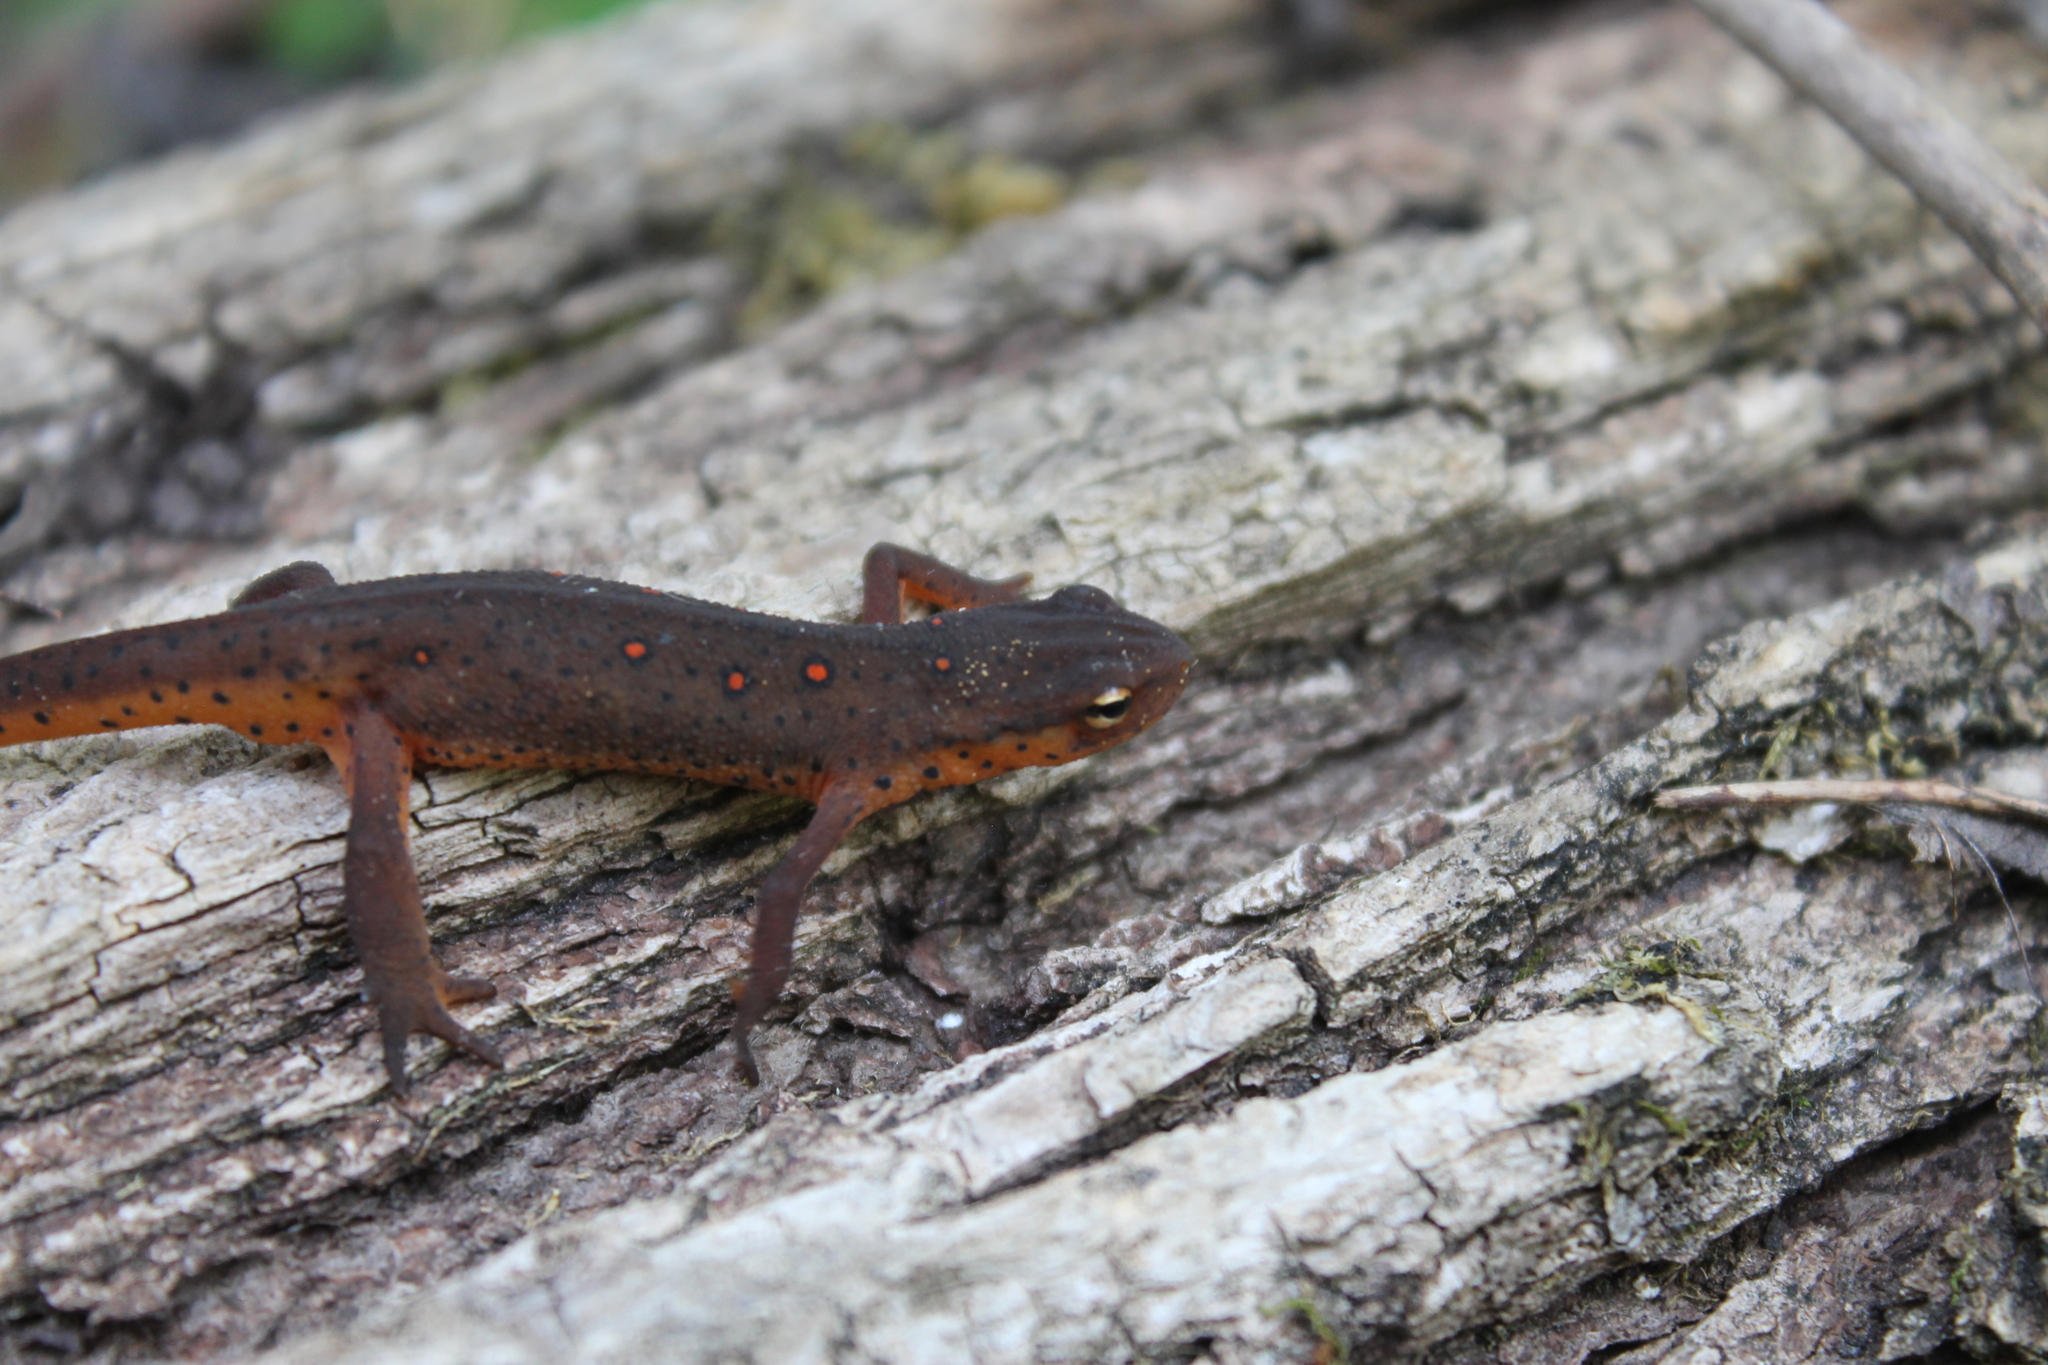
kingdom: Animalia
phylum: Chordata
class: Amphibia
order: Caudata
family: Salamandridae
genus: Notophthalmus
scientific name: Notophthalmus viridescens
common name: Eastern newt
